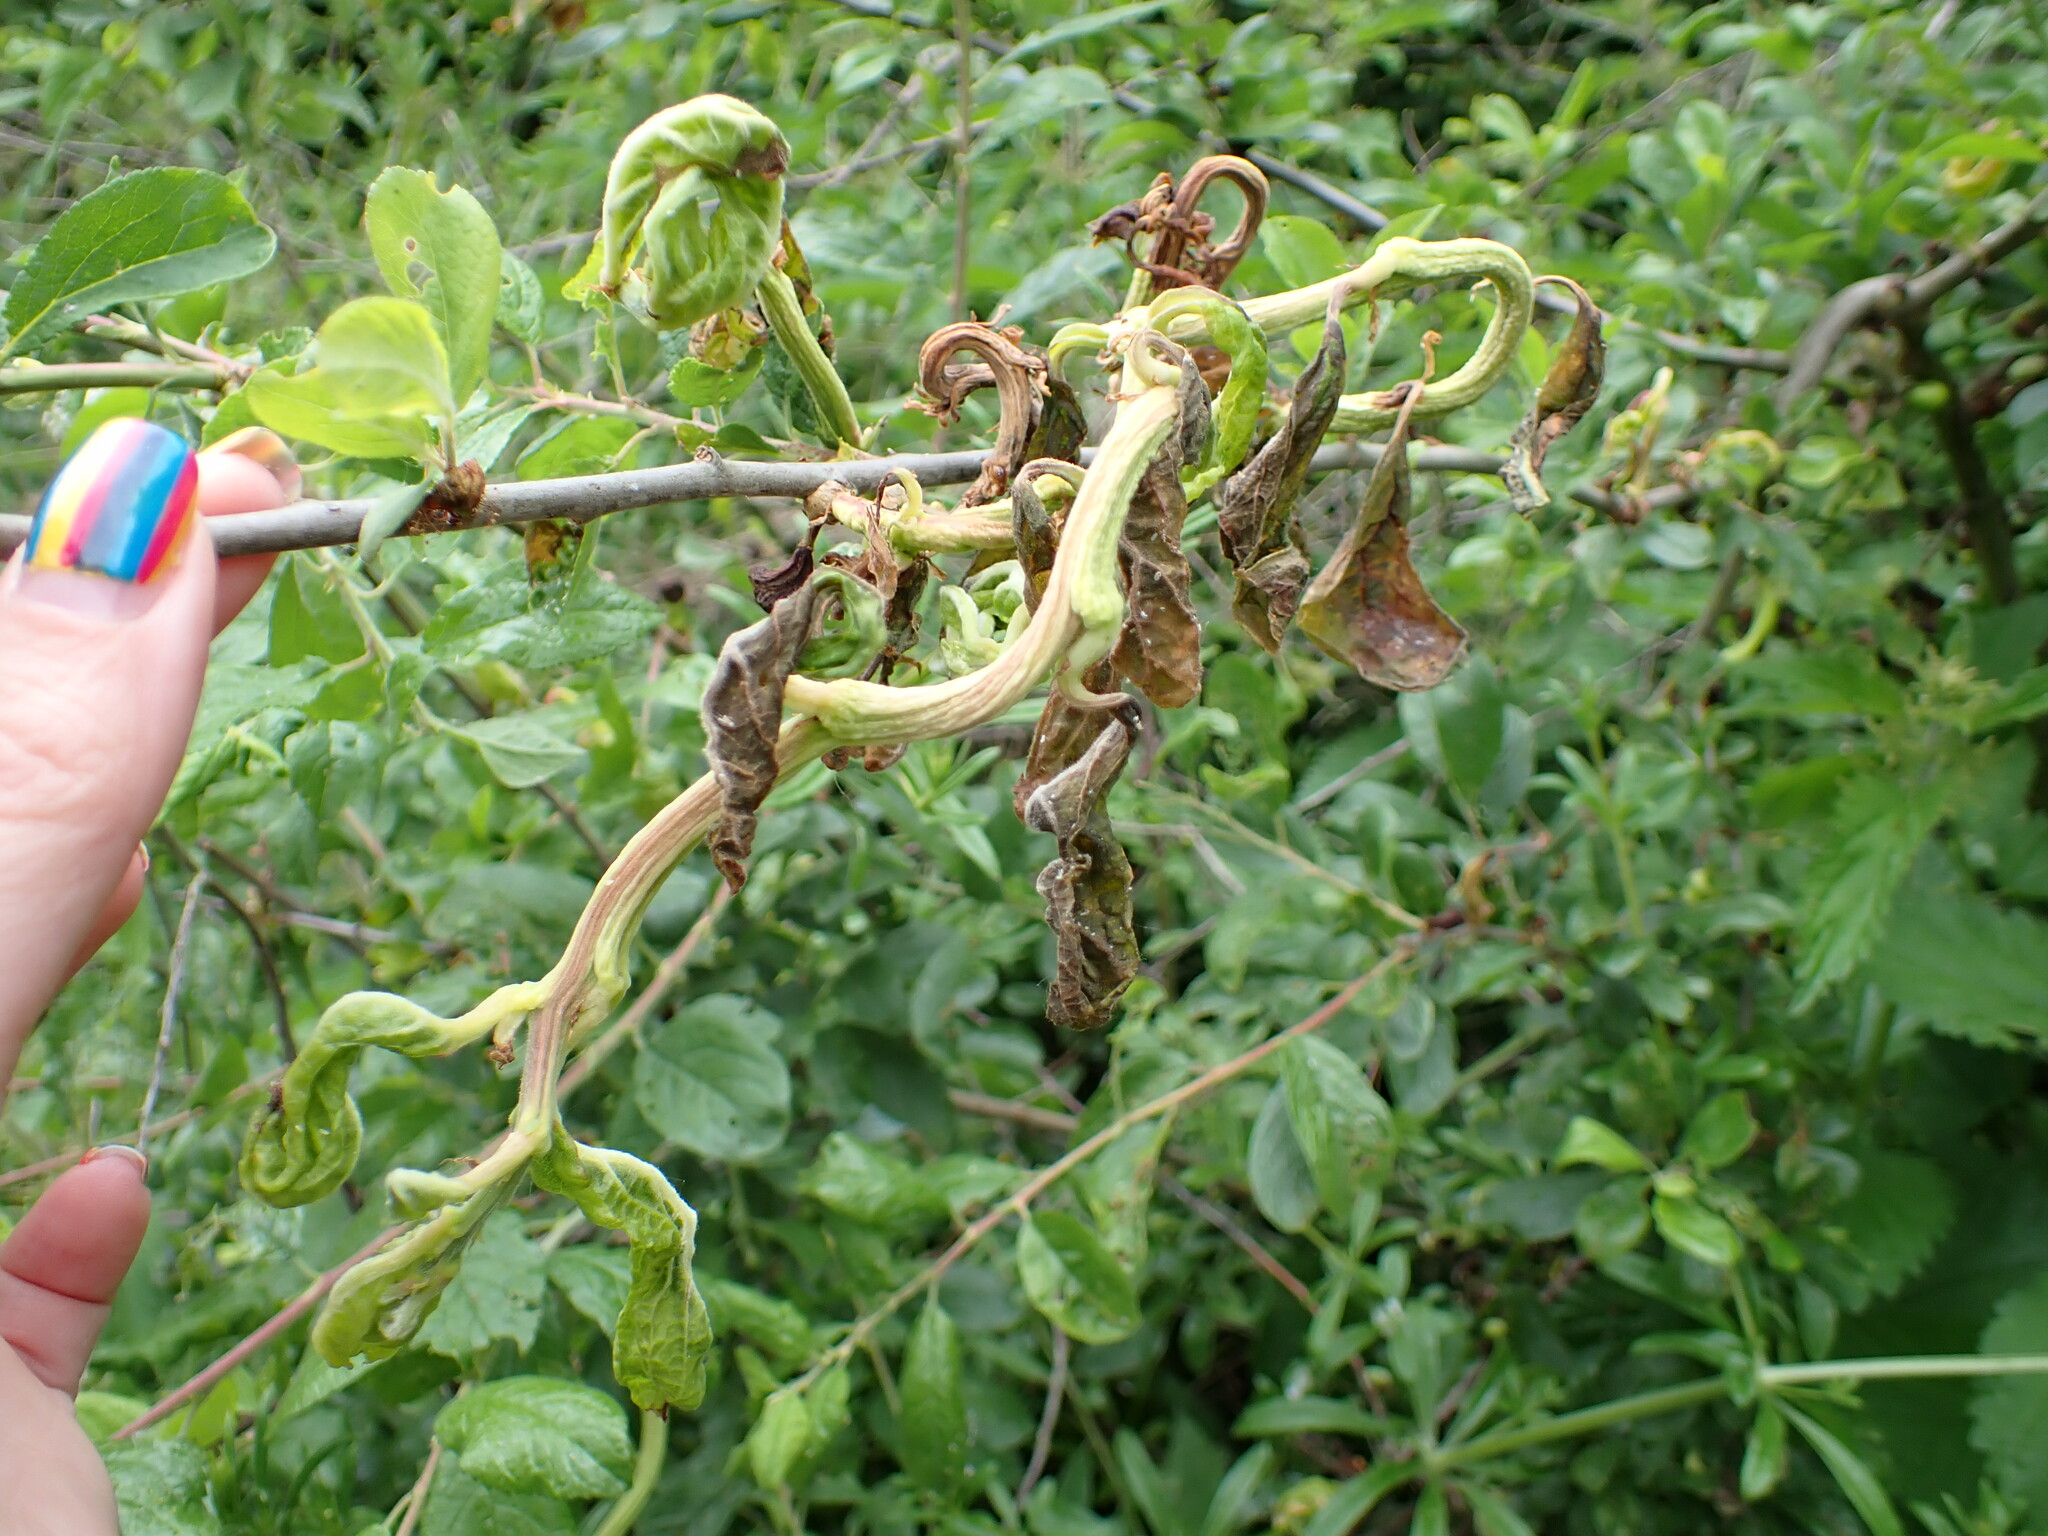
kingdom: Fungi
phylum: Ascomycota
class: Taphrinomycetes
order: Taphrinales
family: Taphrinaceae
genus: Taphrina
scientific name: Taphrina pruni
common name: Pocket plum
